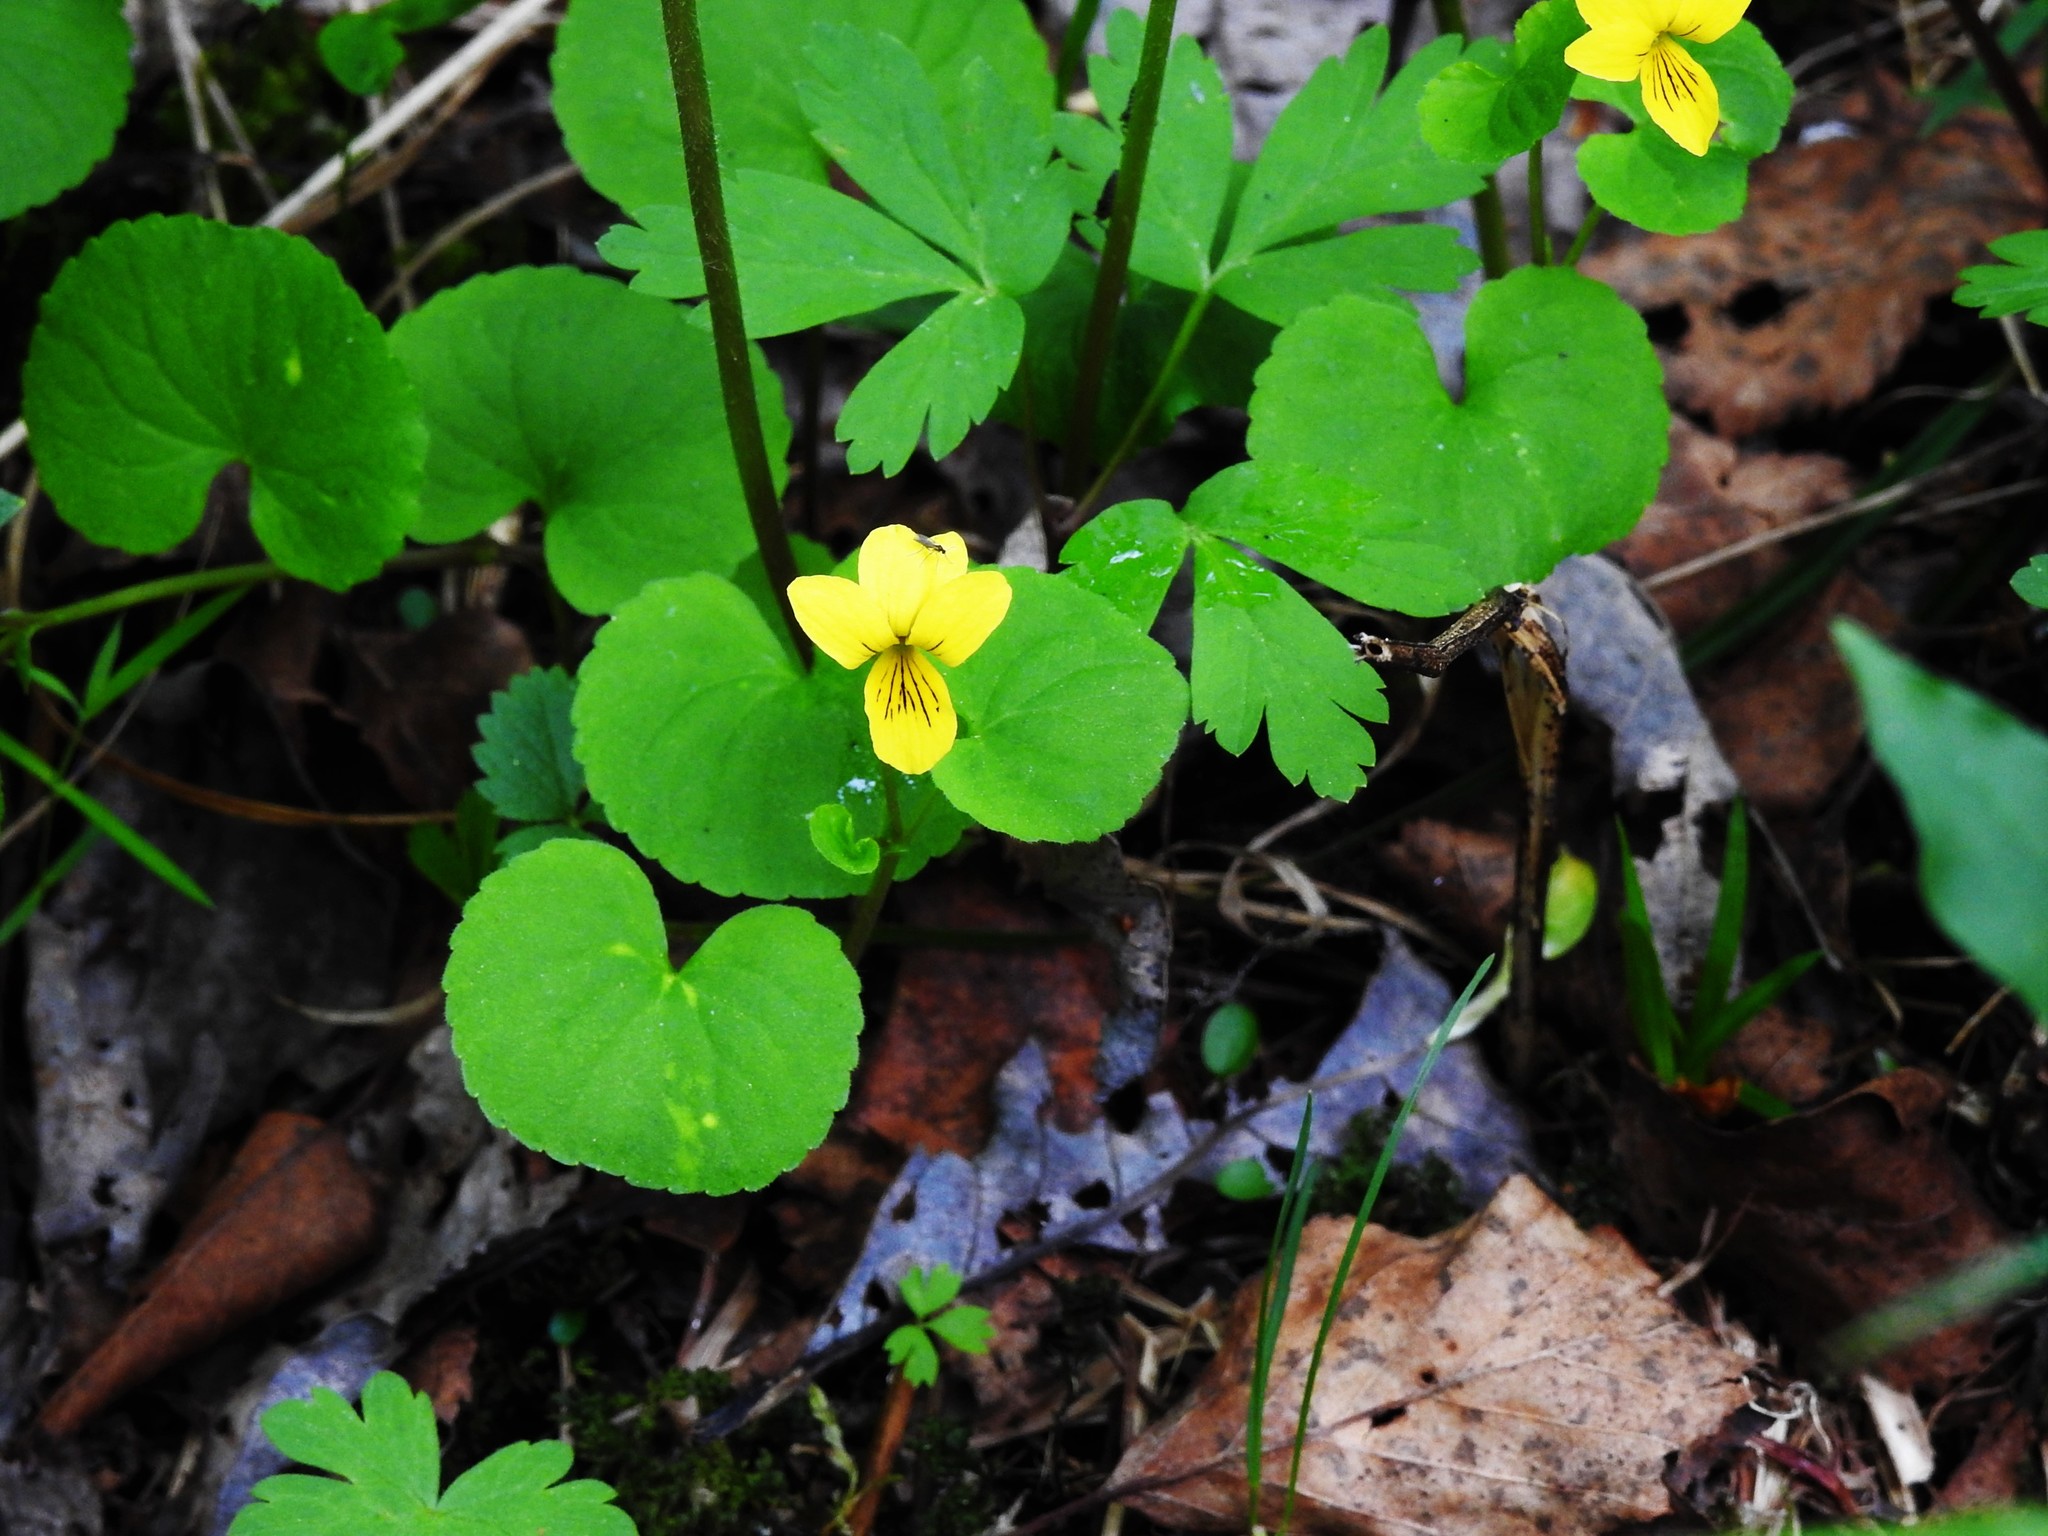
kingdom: Plantae
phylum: Tracheophyta
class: Magnoliopsida
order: Malpighiales
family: Violaceae
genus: Viola
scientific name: Viola biflora
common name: Alpine yellow violet
